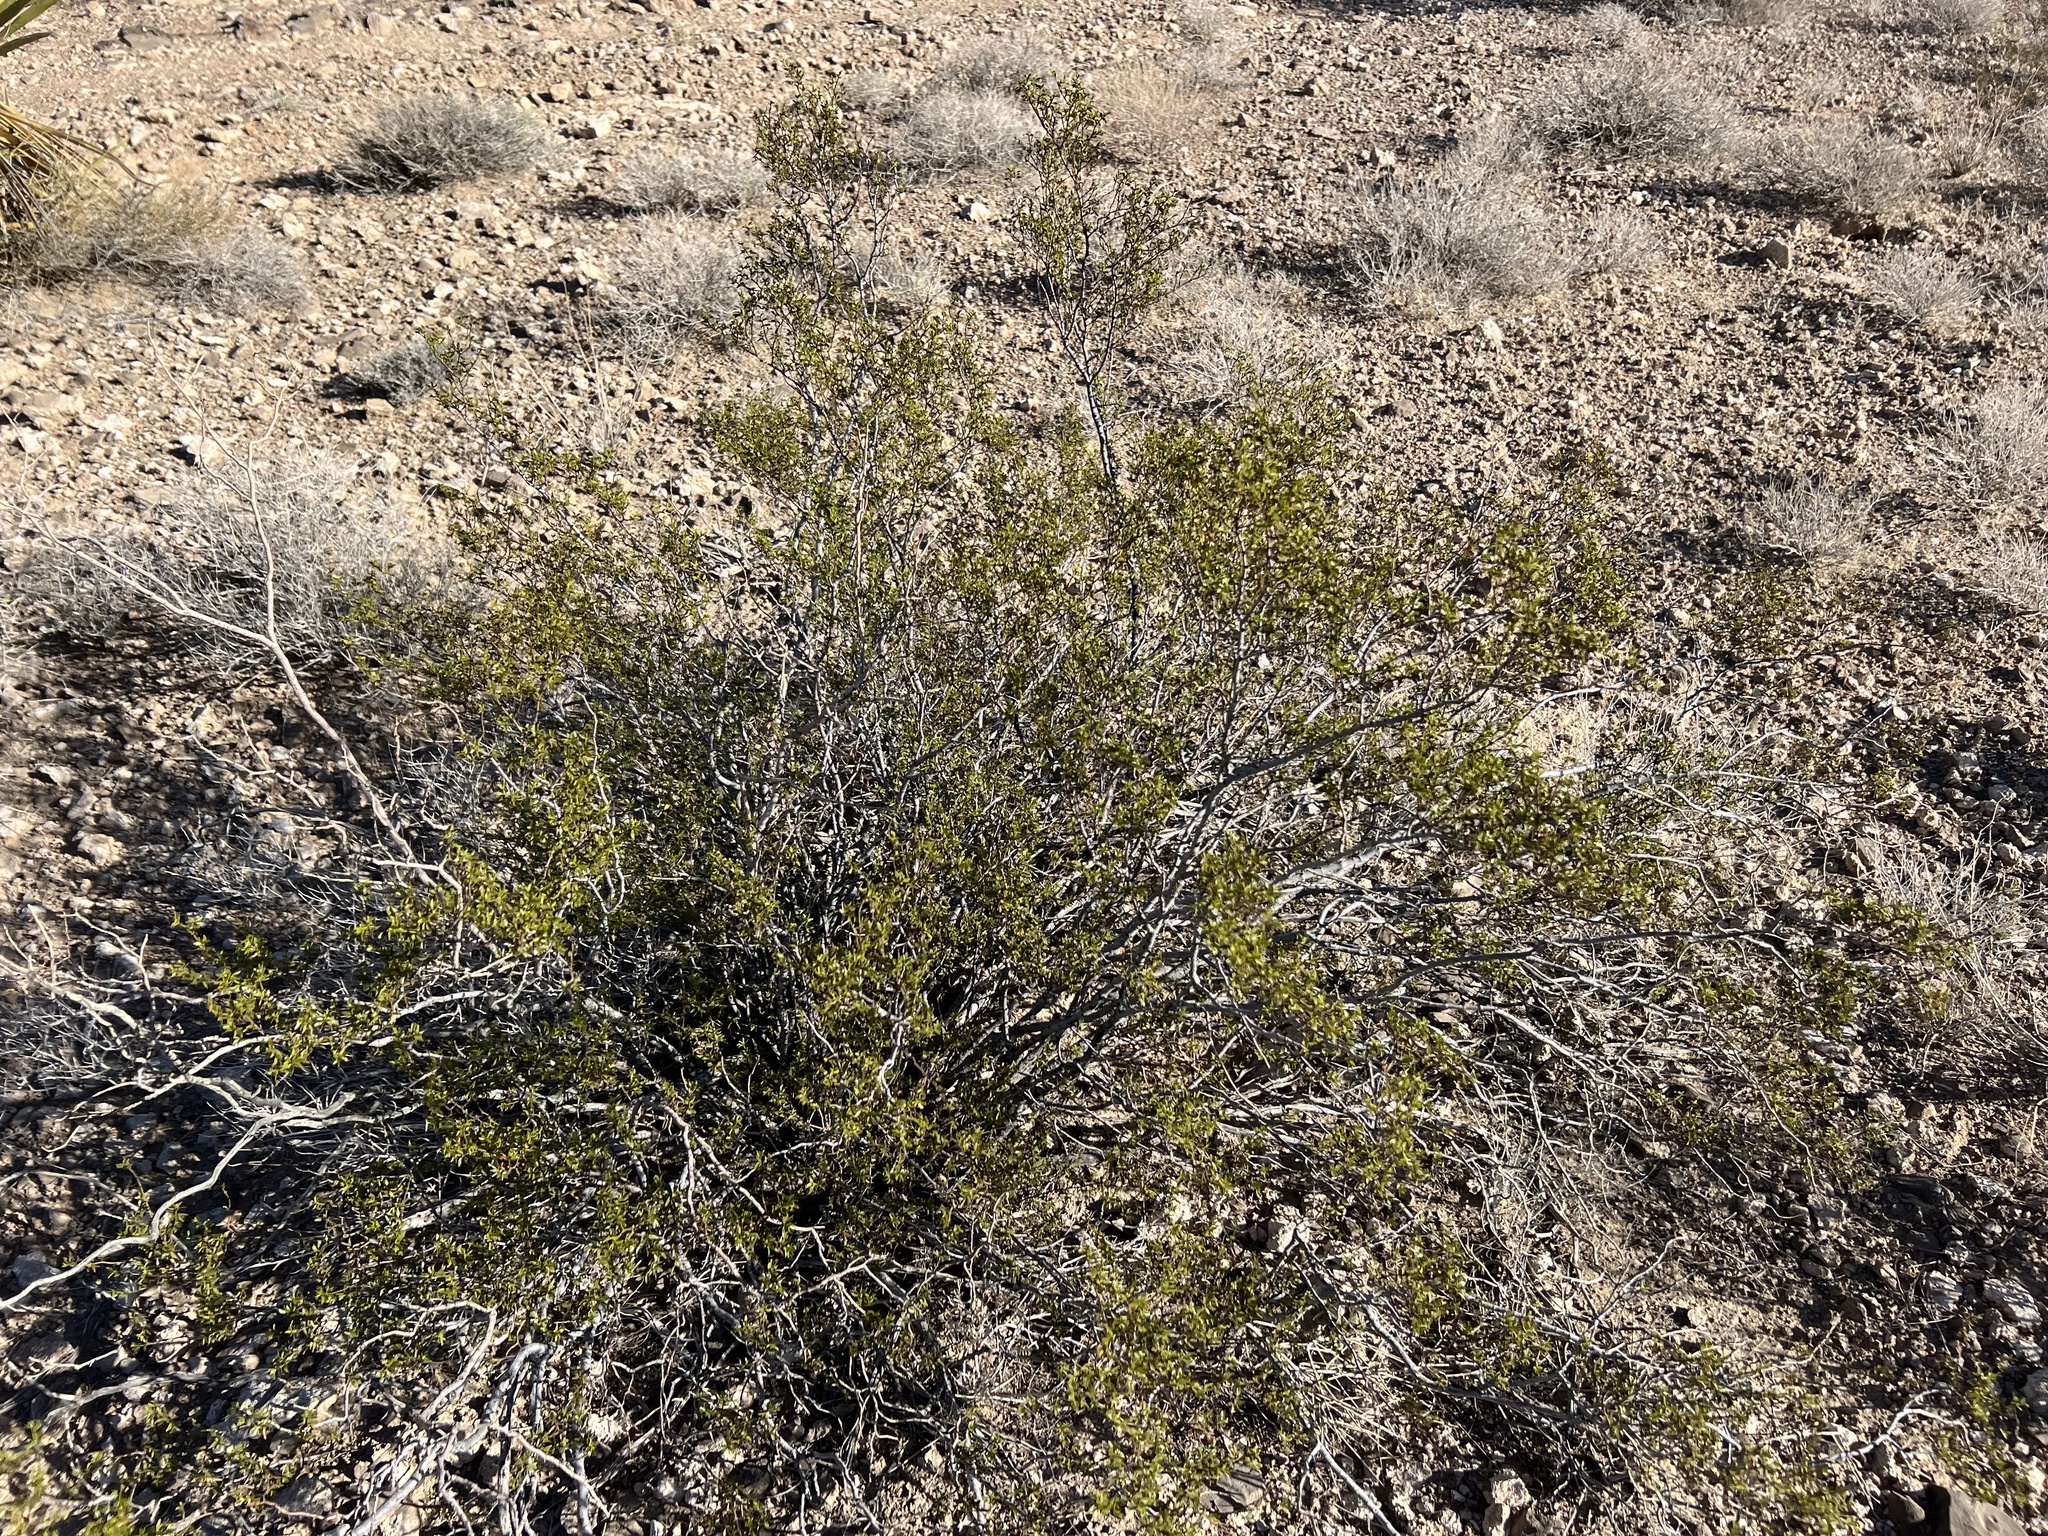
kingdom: Plantae
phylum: Tracheophyta
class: Magnoliopsida
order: Zygophyllales
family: Zygophyllaceae
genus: Larrea
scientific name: Larrea tridentata
